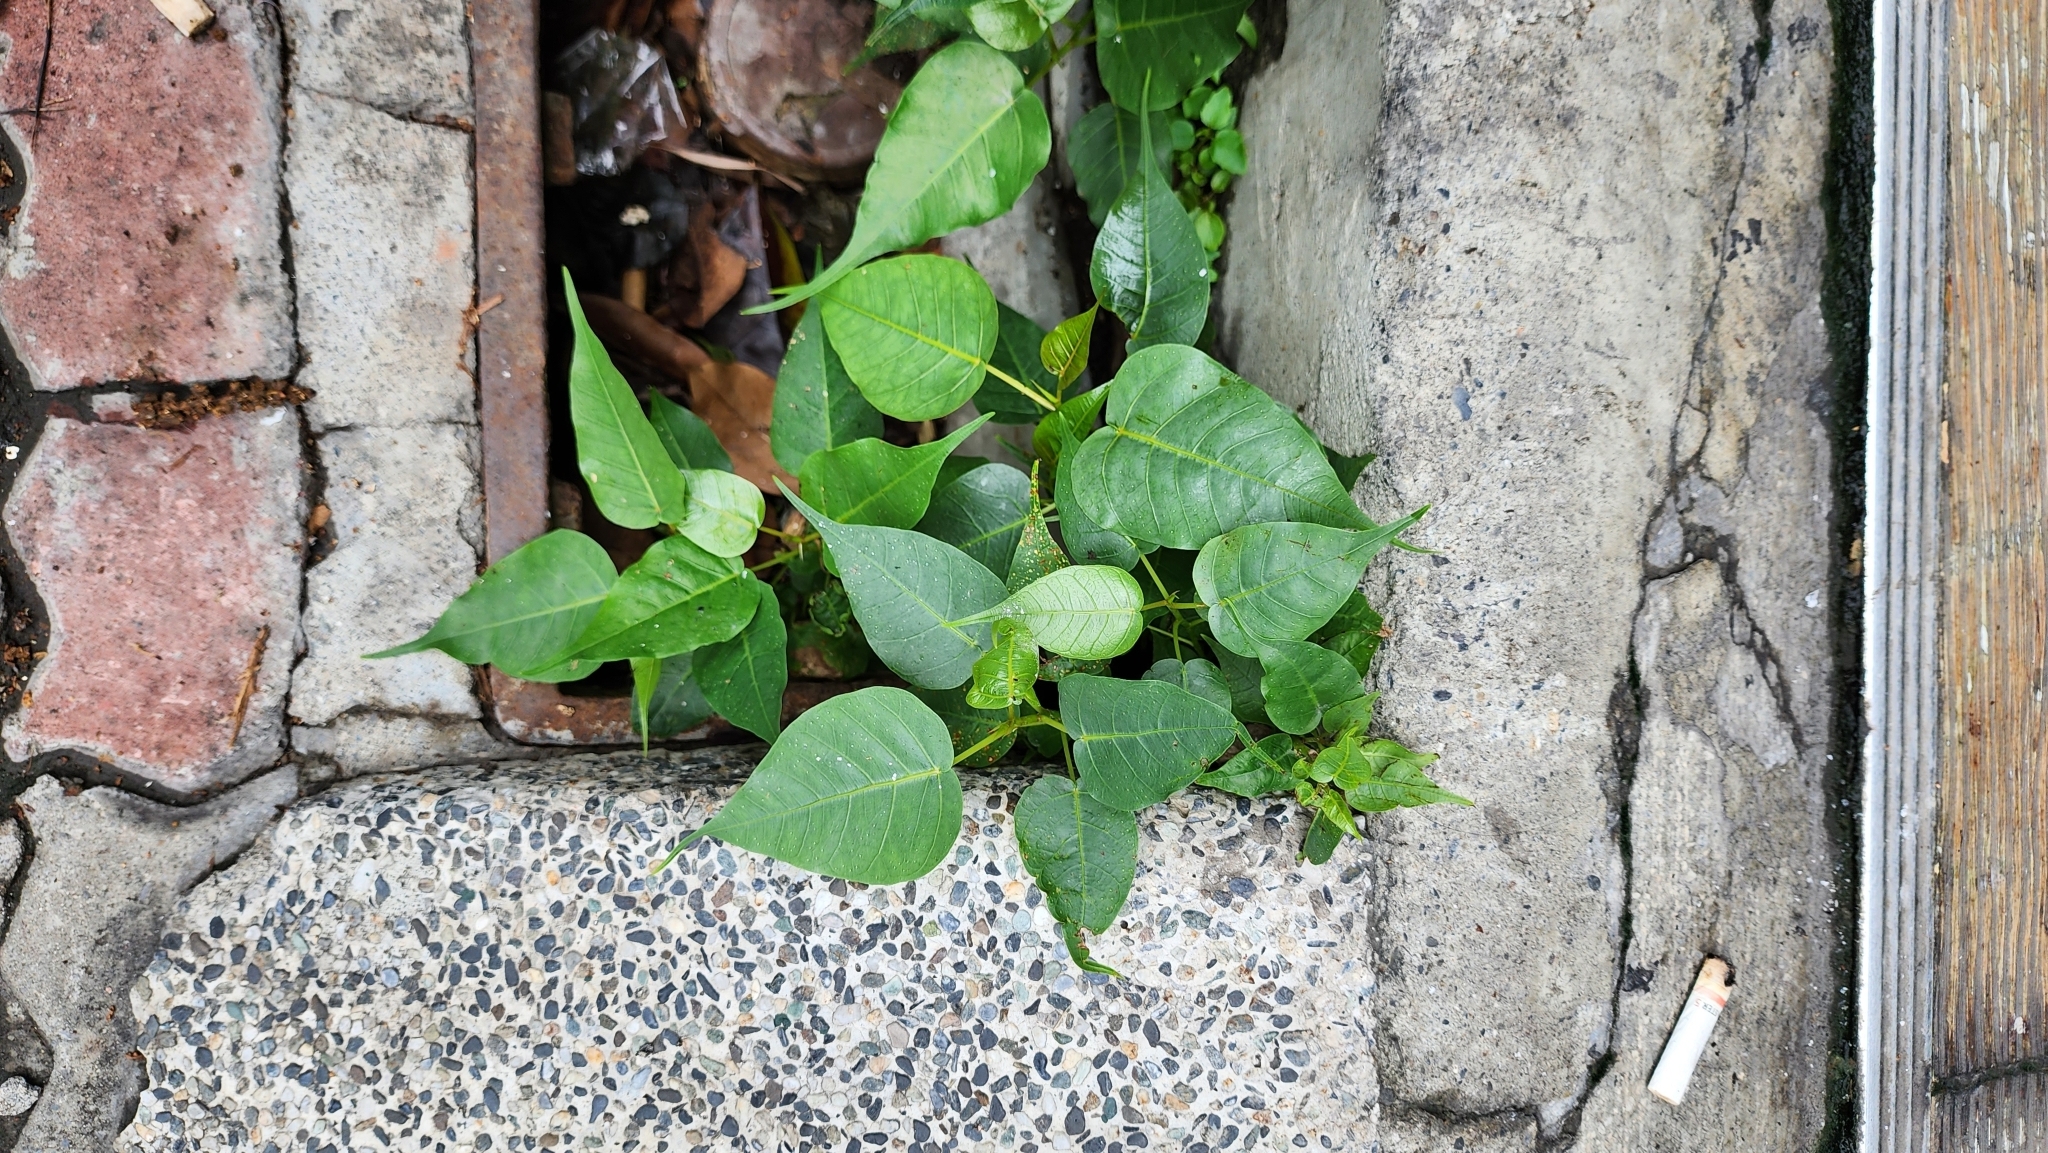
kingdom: Plantae
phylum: Tracheophyta
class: Magnoliopsida
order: Rosales
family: Moraceae
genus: Ficus
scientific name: Ficus religiosa
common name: Bodhi tree
